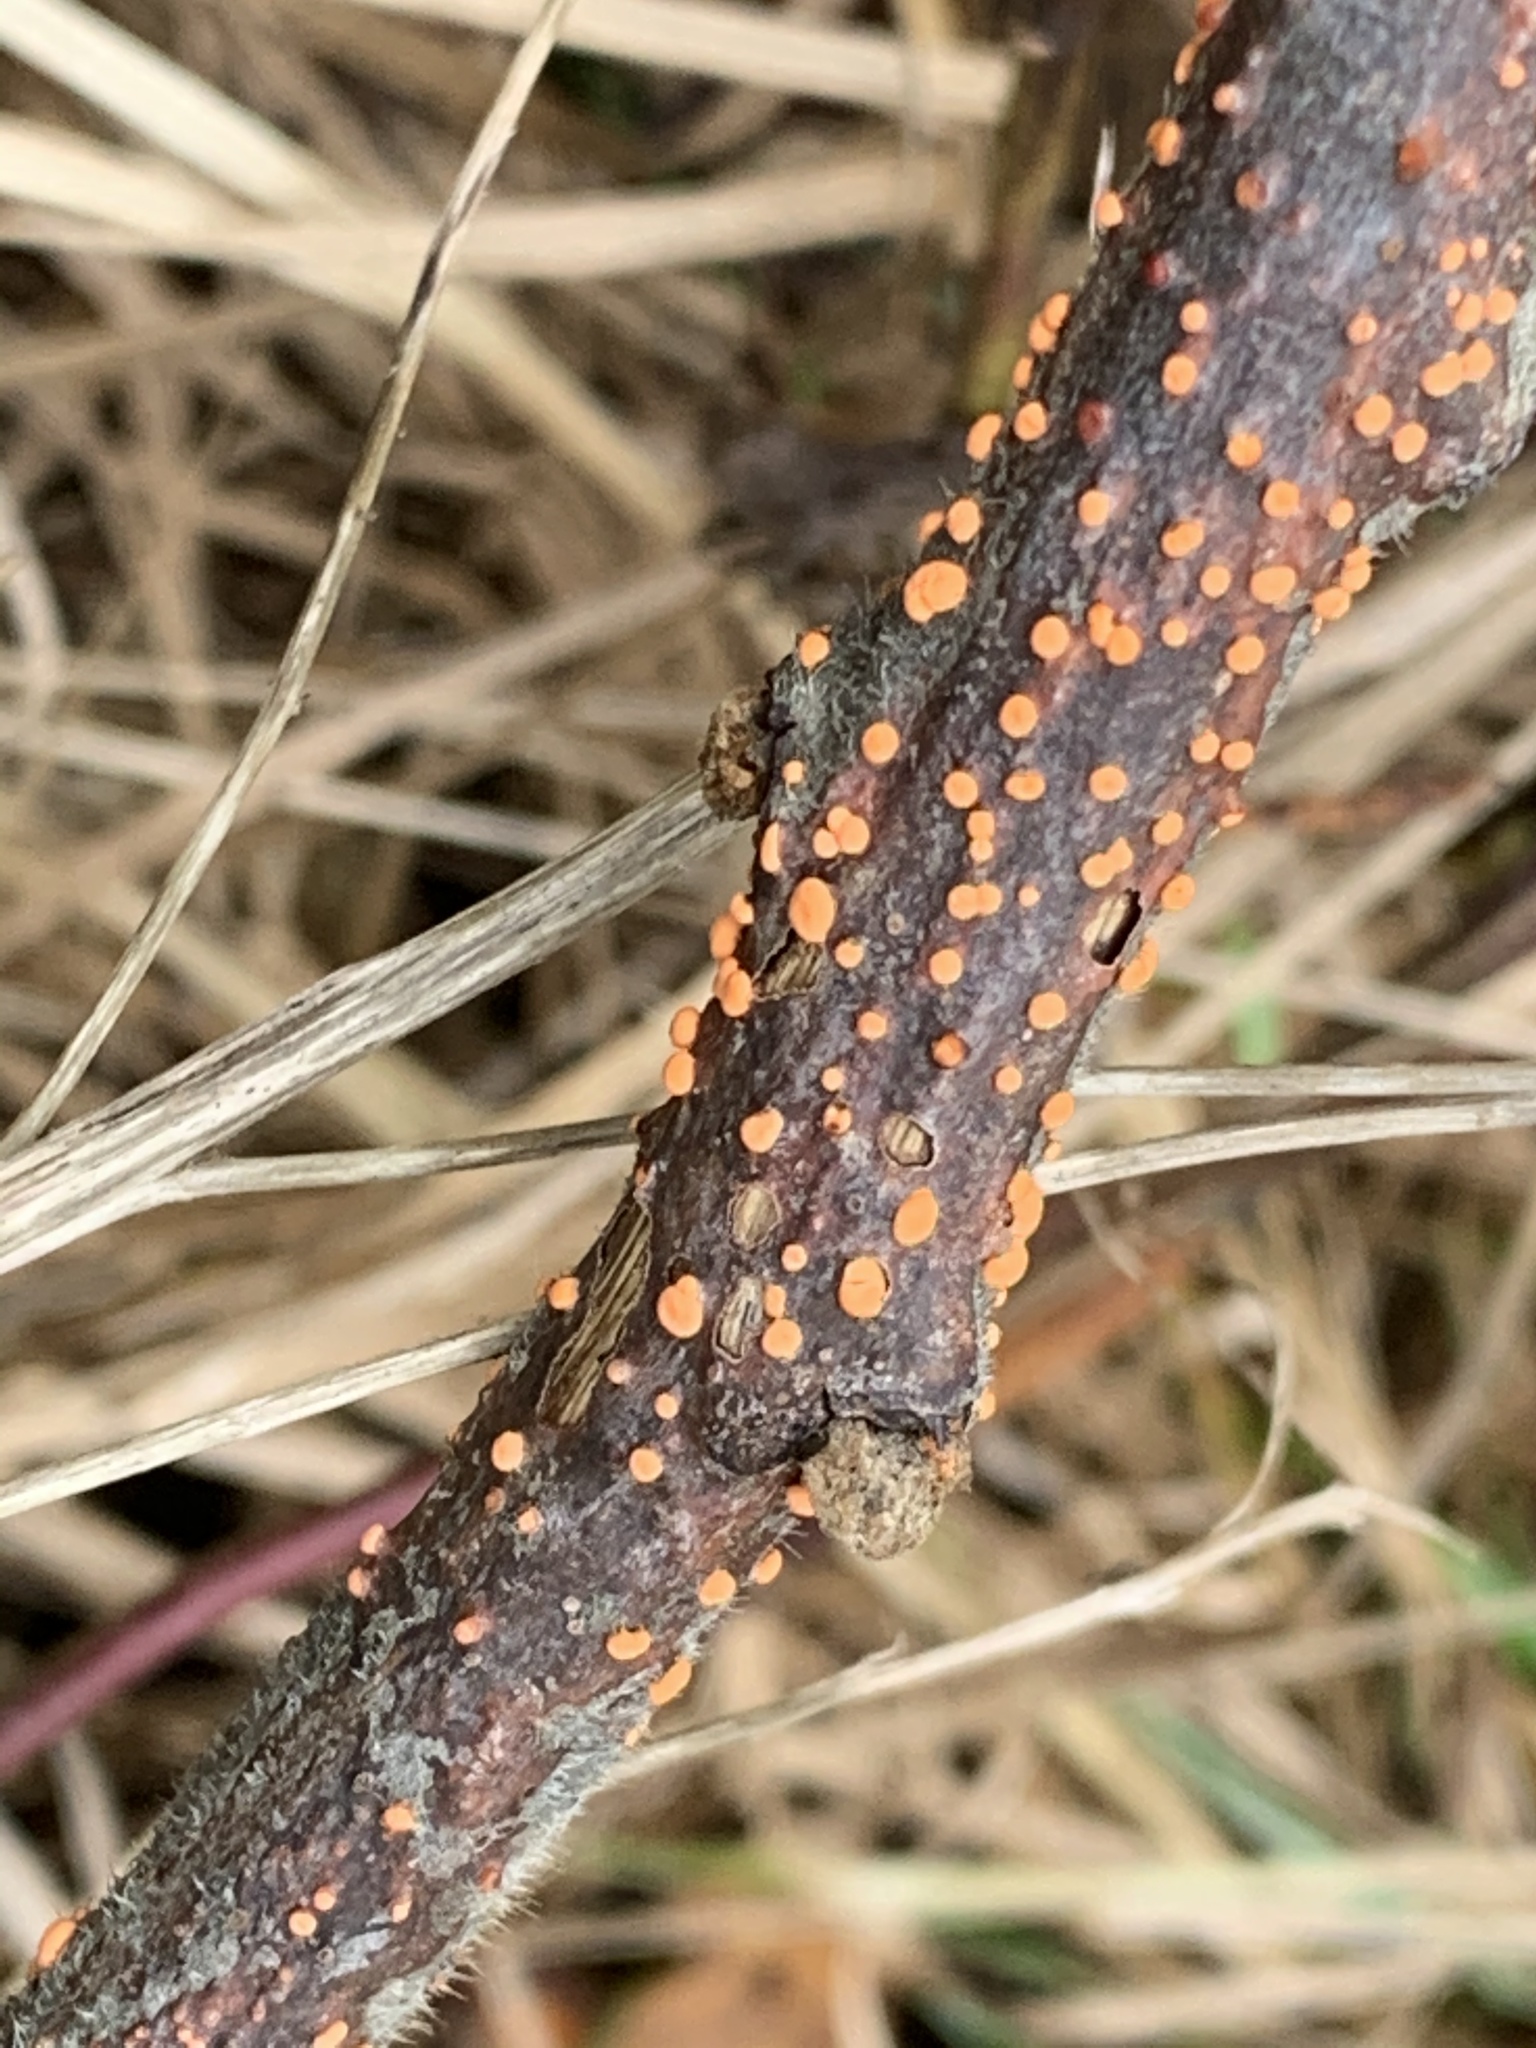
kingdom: Fungi
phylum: Ascomycota
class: Sordariomycetes
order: Hypocreales
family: Nectriaceae
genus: Nectria
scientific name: Nectria cinnabarina
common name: Coral spot
